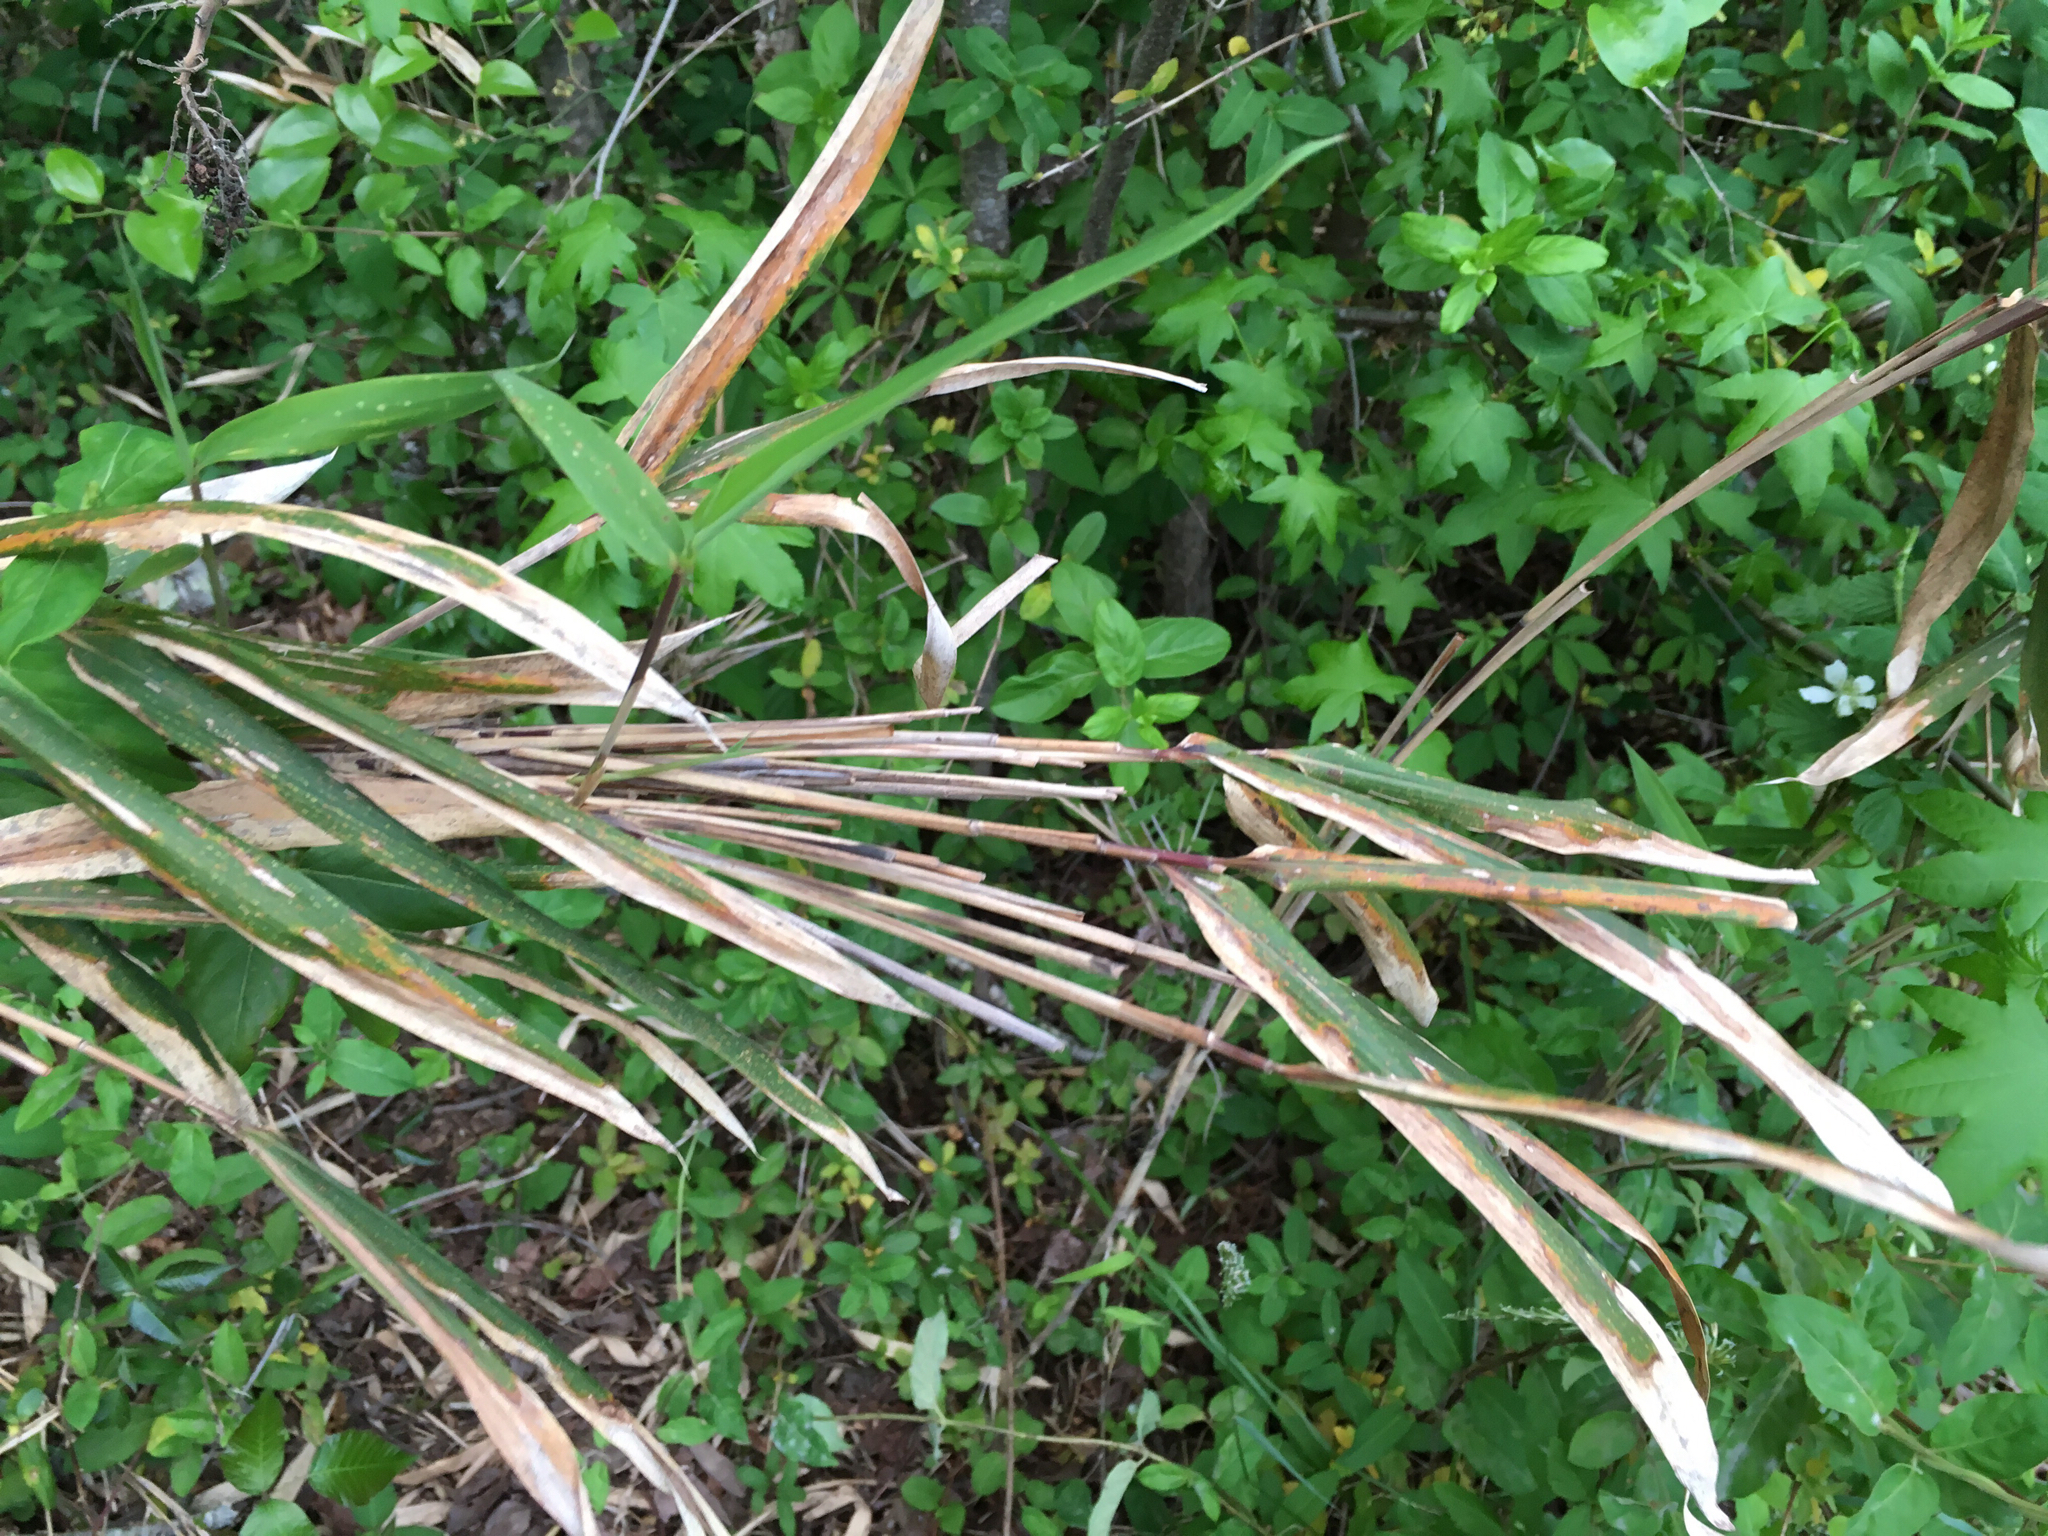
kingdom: Plantae
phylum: Tracheophyta
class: Liliopsida
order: Poales
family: Poaceae
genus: Arundinaria
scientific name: Arundinaria tecta
